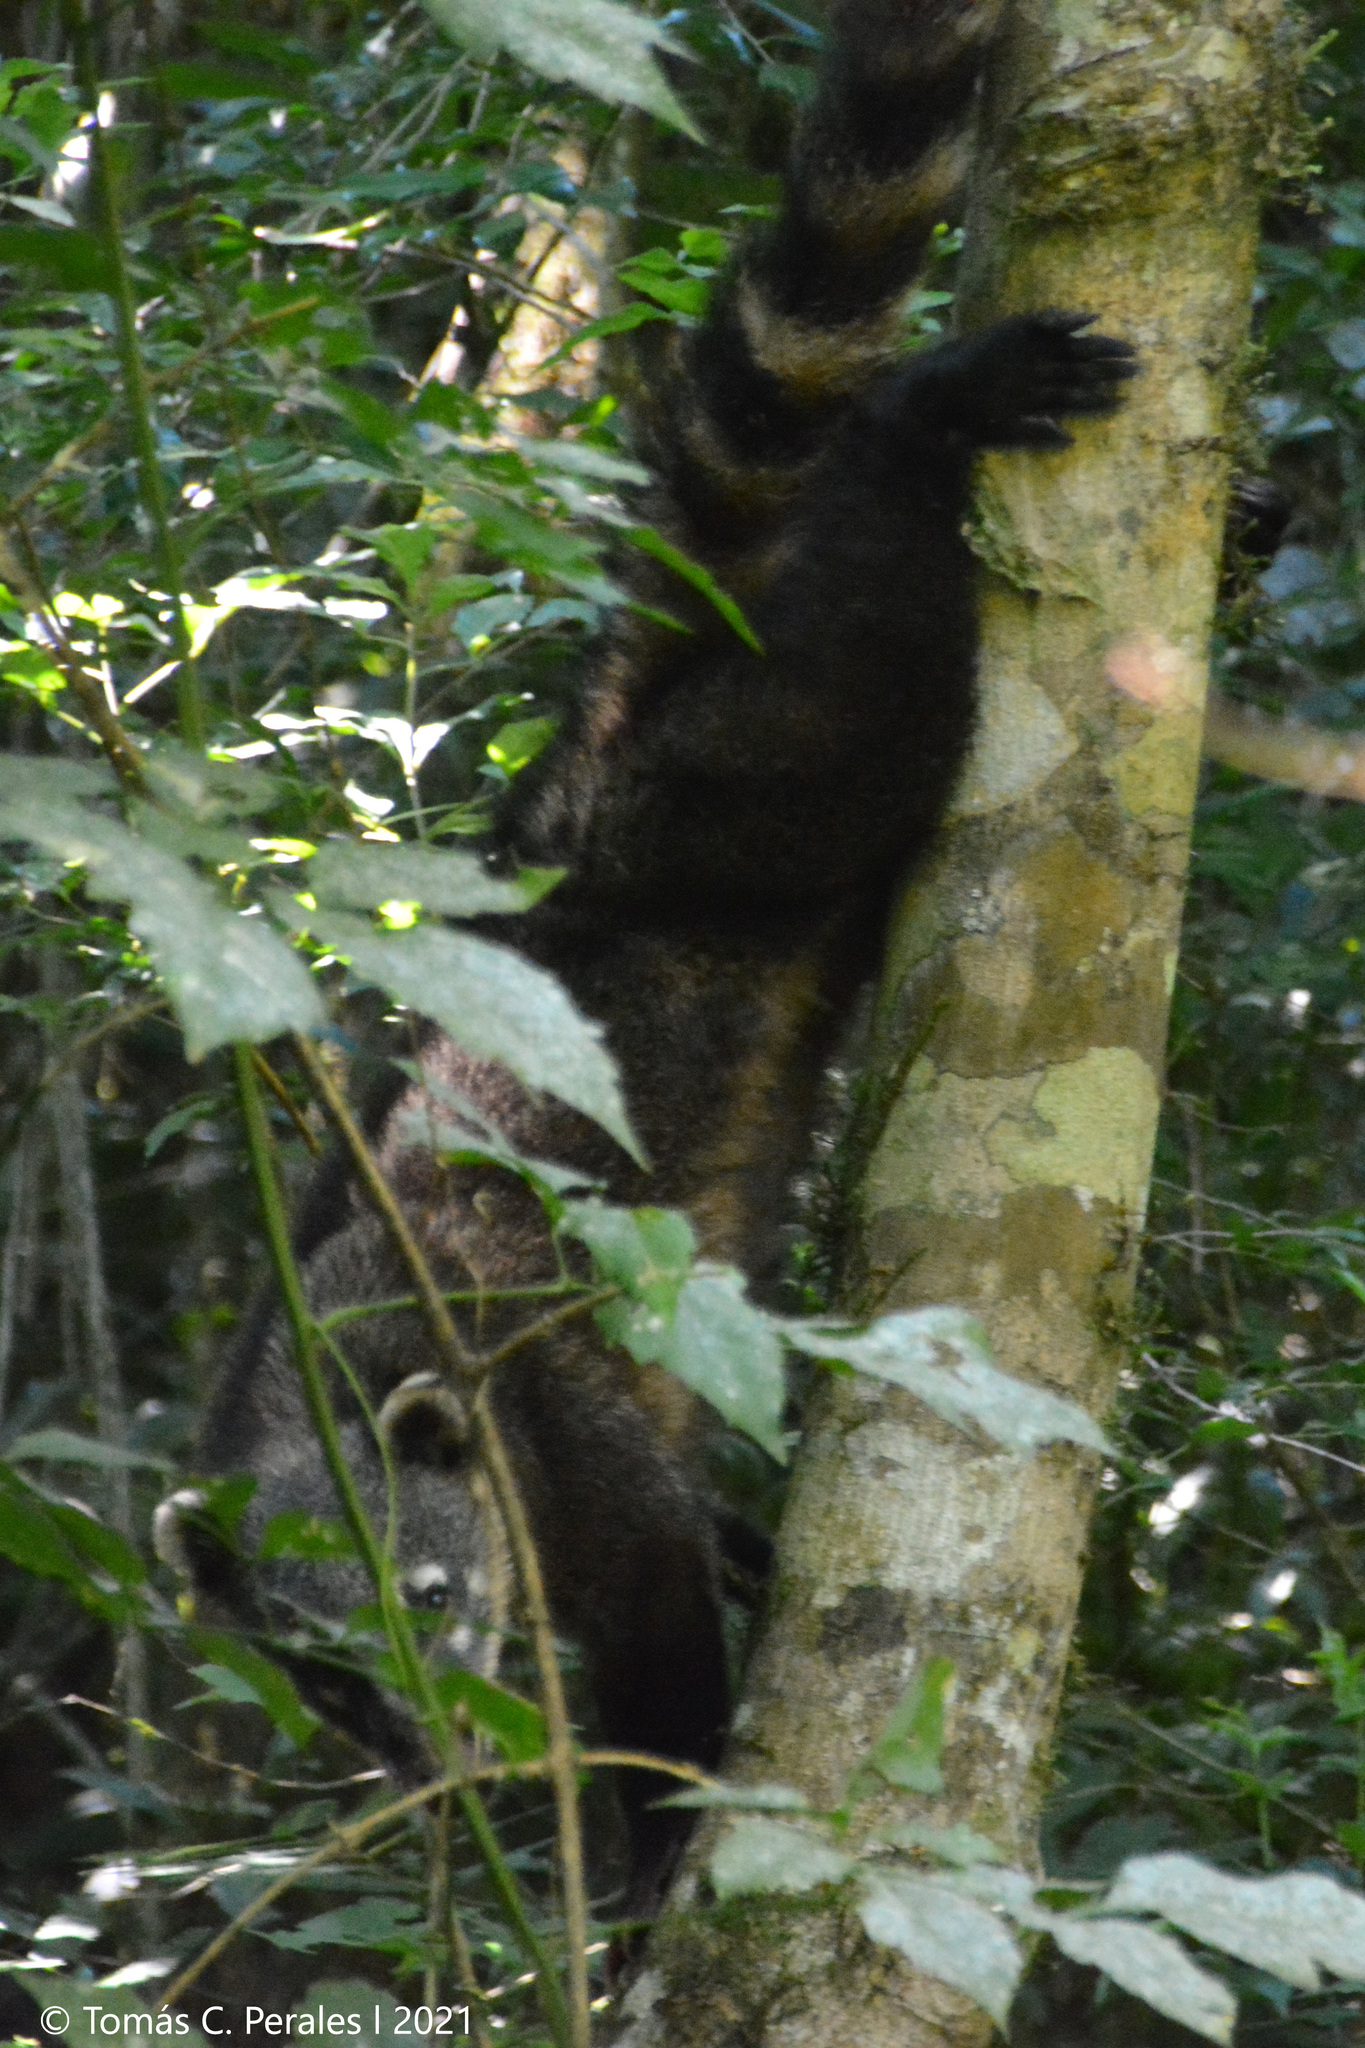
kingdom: Animalia
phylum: Chordata
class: Mammalia
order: Carnivora
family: Procyonidae
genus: Nasua
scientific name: Nasua nasua
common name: South american coati
